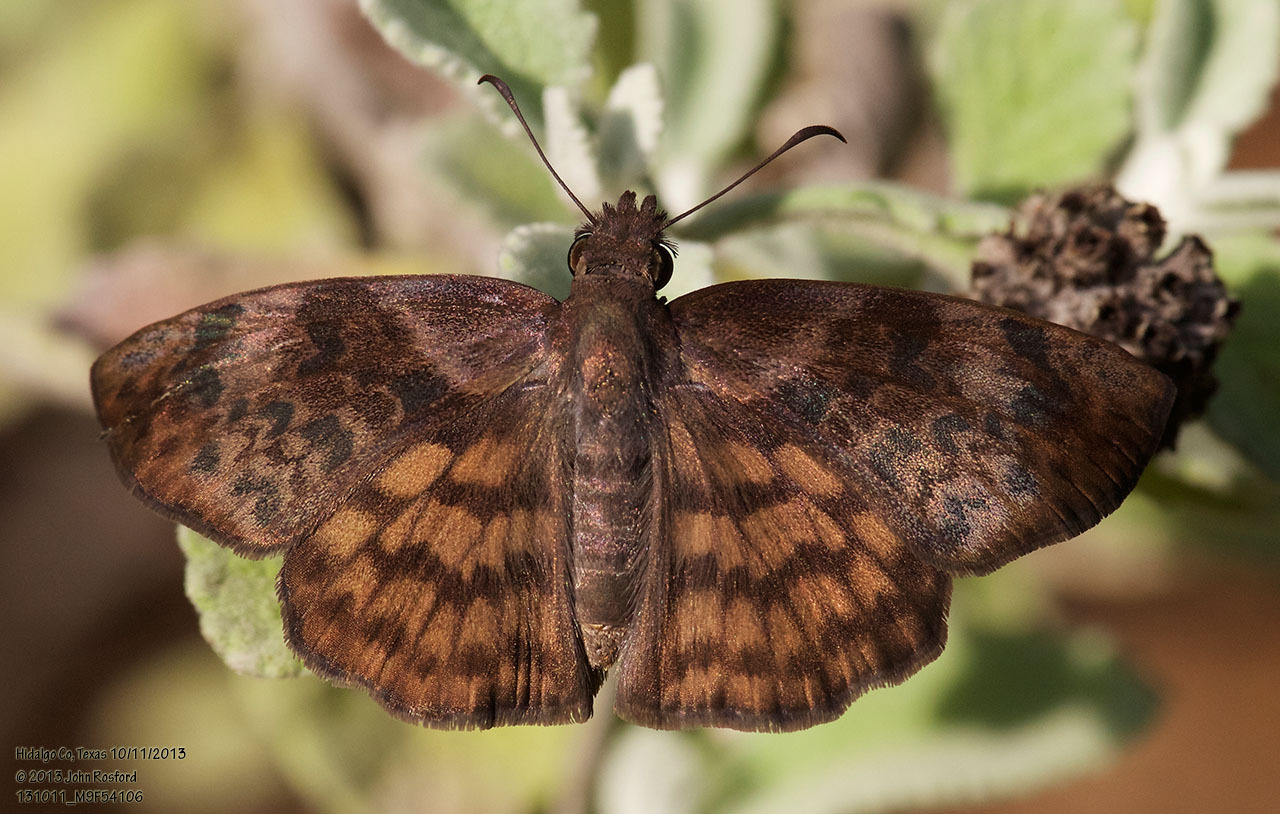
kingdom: Animalia
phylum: Arthropoda
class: Insecta
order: Lepidoptera
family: Hesperiidae
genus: Timochares
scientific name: Timochares ruptifasciata
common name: Brown-banded skipper
